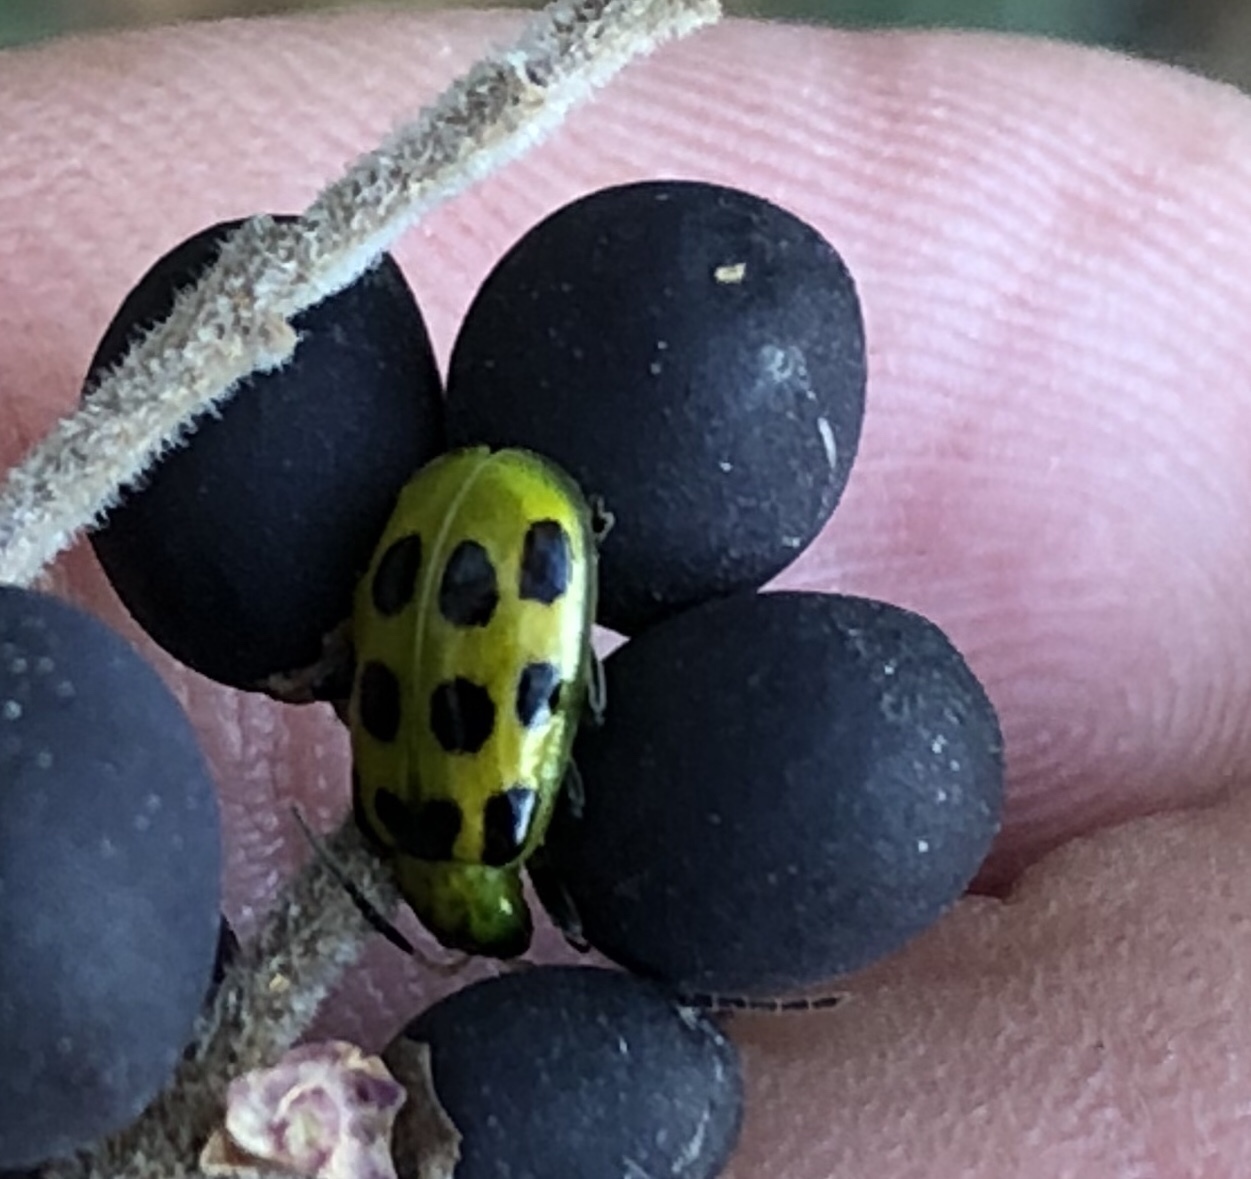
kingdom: Animalia
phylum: Arthropoda
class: Insecta
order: Coleoptera
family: Chrysomelidae
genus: Diabrotica
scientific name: Diabrotica undecimpunctata
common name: Spotted cucumber beetle
